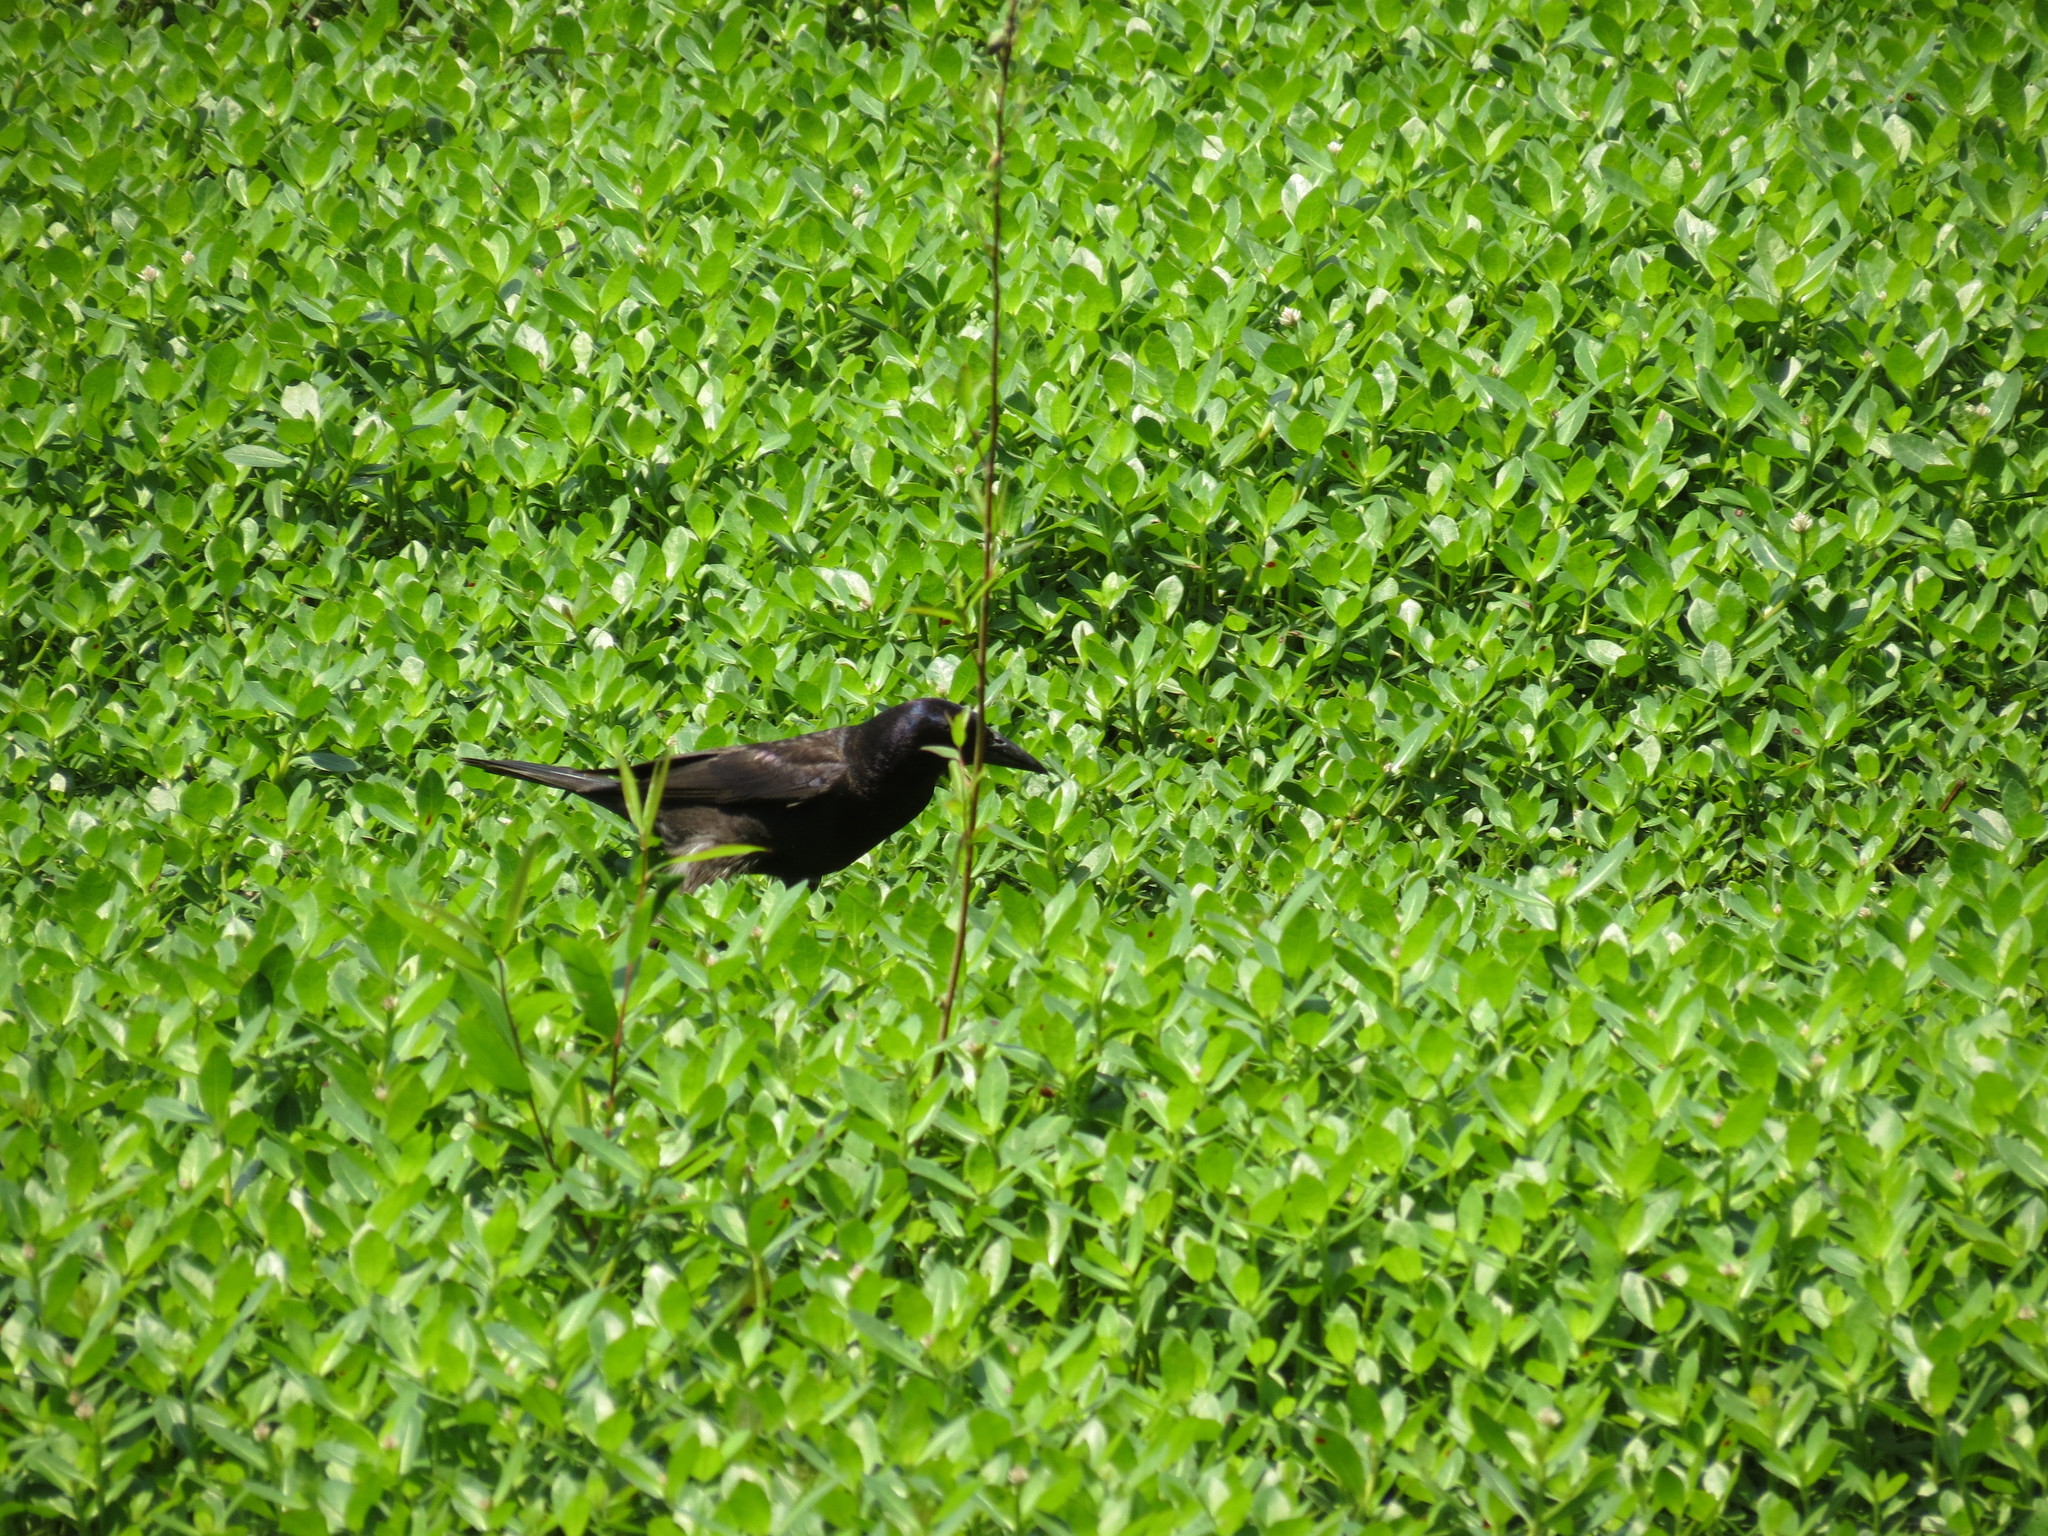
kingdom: Animalia
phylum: Chordata
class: Aves
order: Passeriformes
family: Icteridae
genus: Quiscalus
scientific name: Quiscalus quiscula
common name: Common grackle
